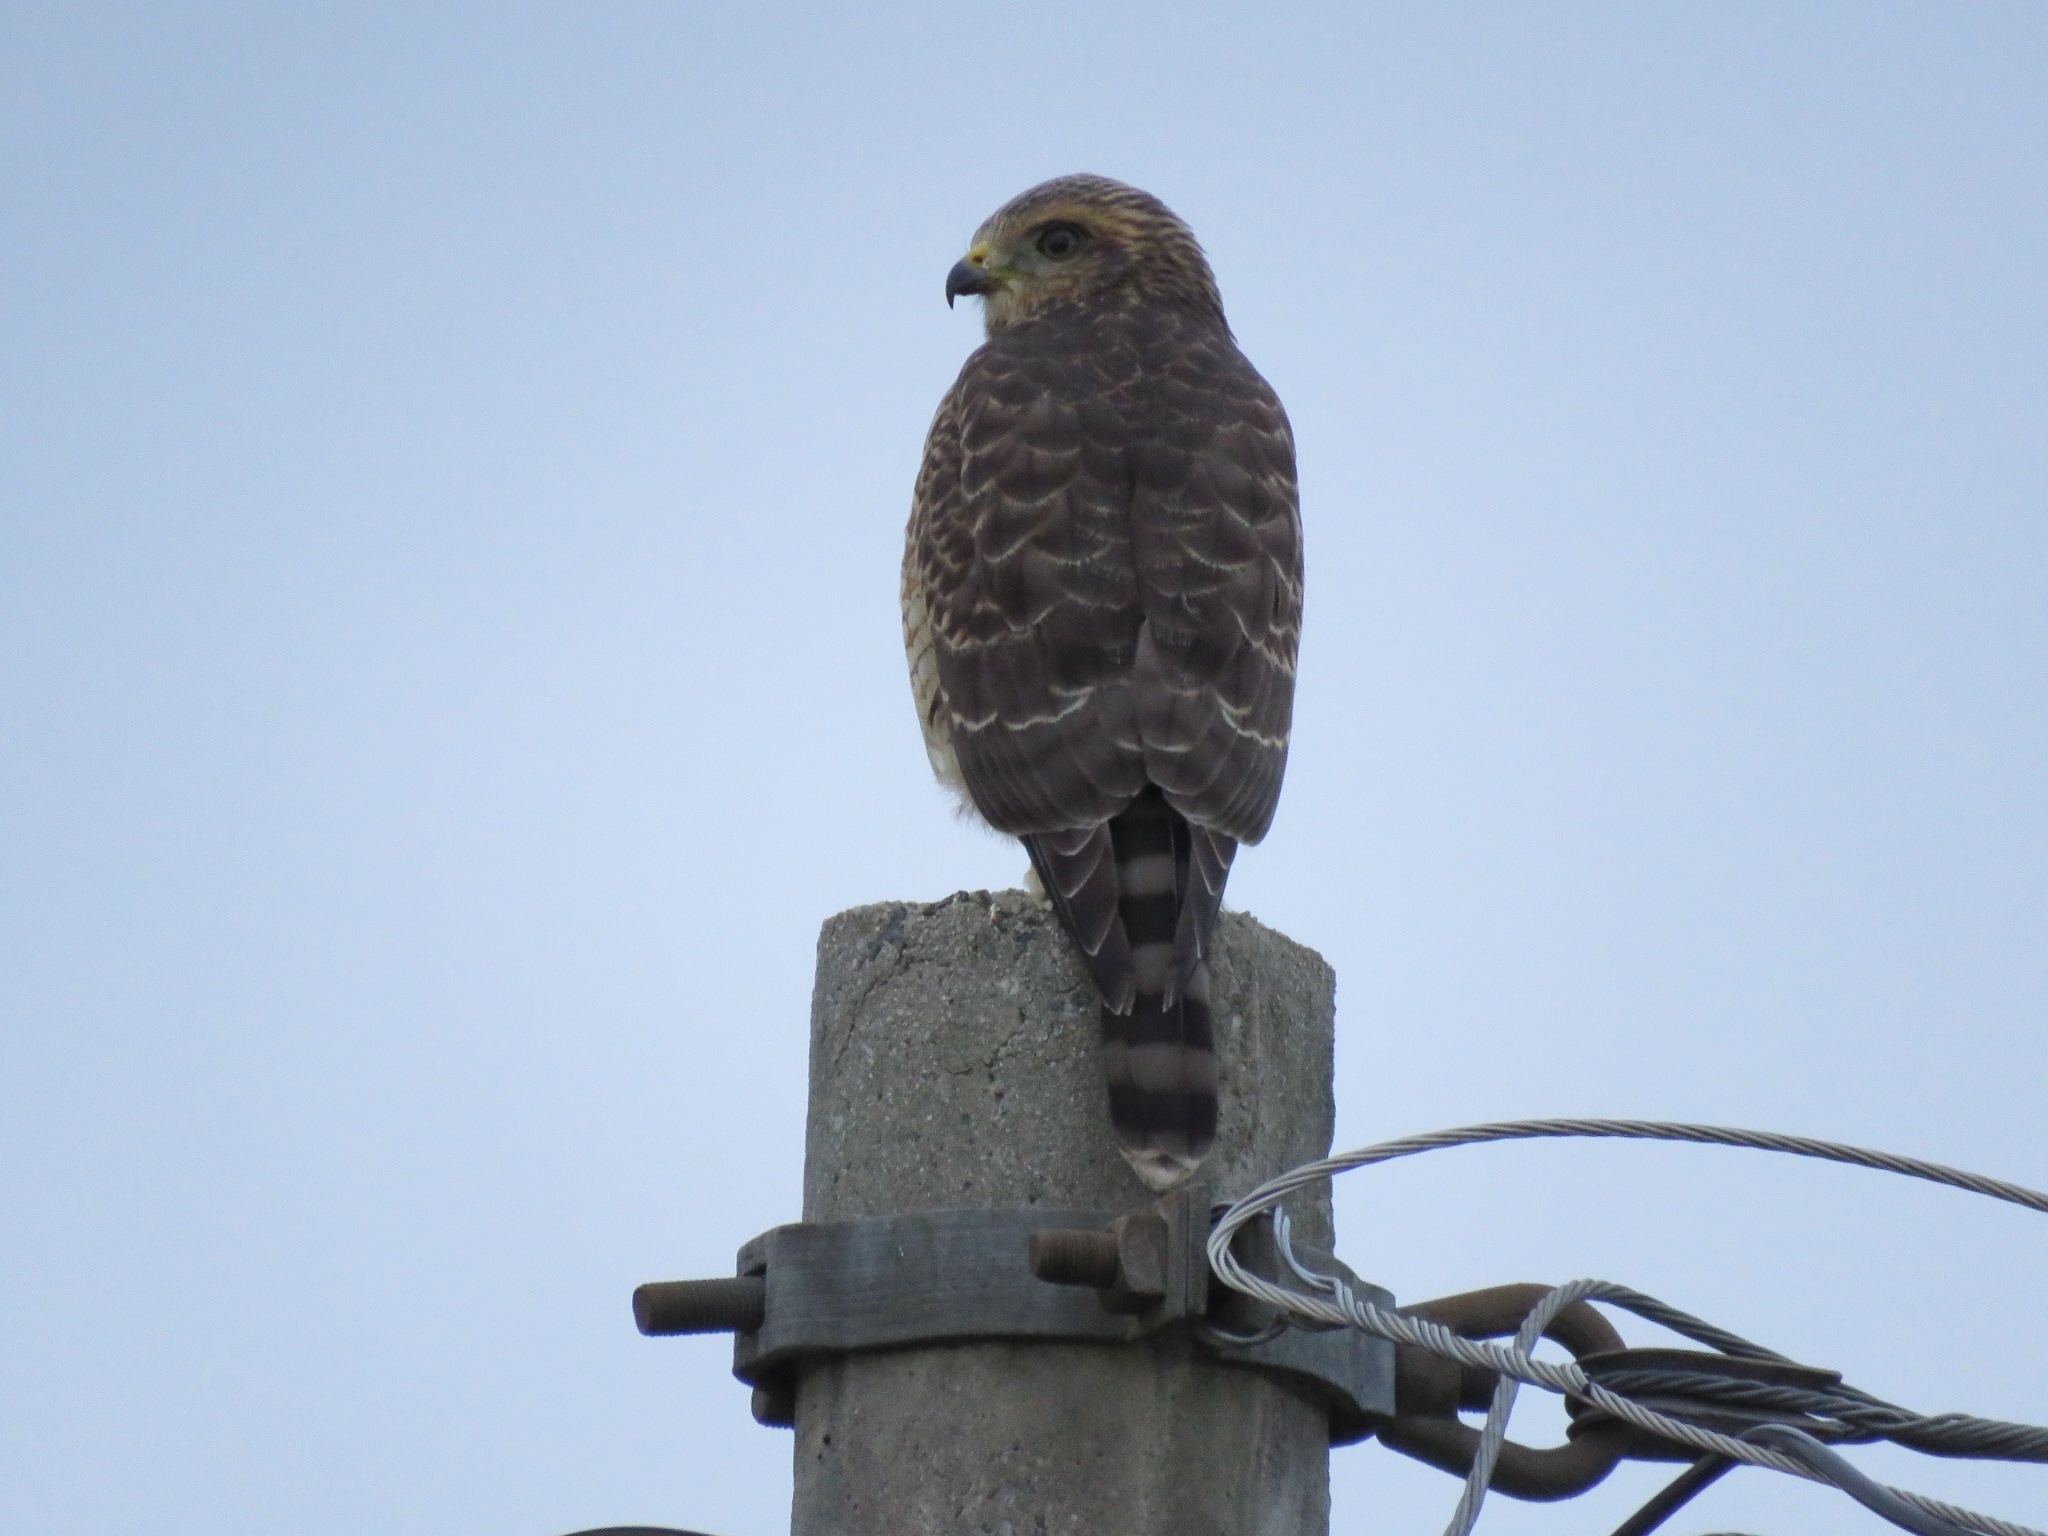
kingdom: Animalia
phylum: Chordata
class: Aves
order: Accipitriformes
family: Accipitridae
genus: Rupornis
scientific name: Rupornis magnirostris
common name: Roadside hawk
